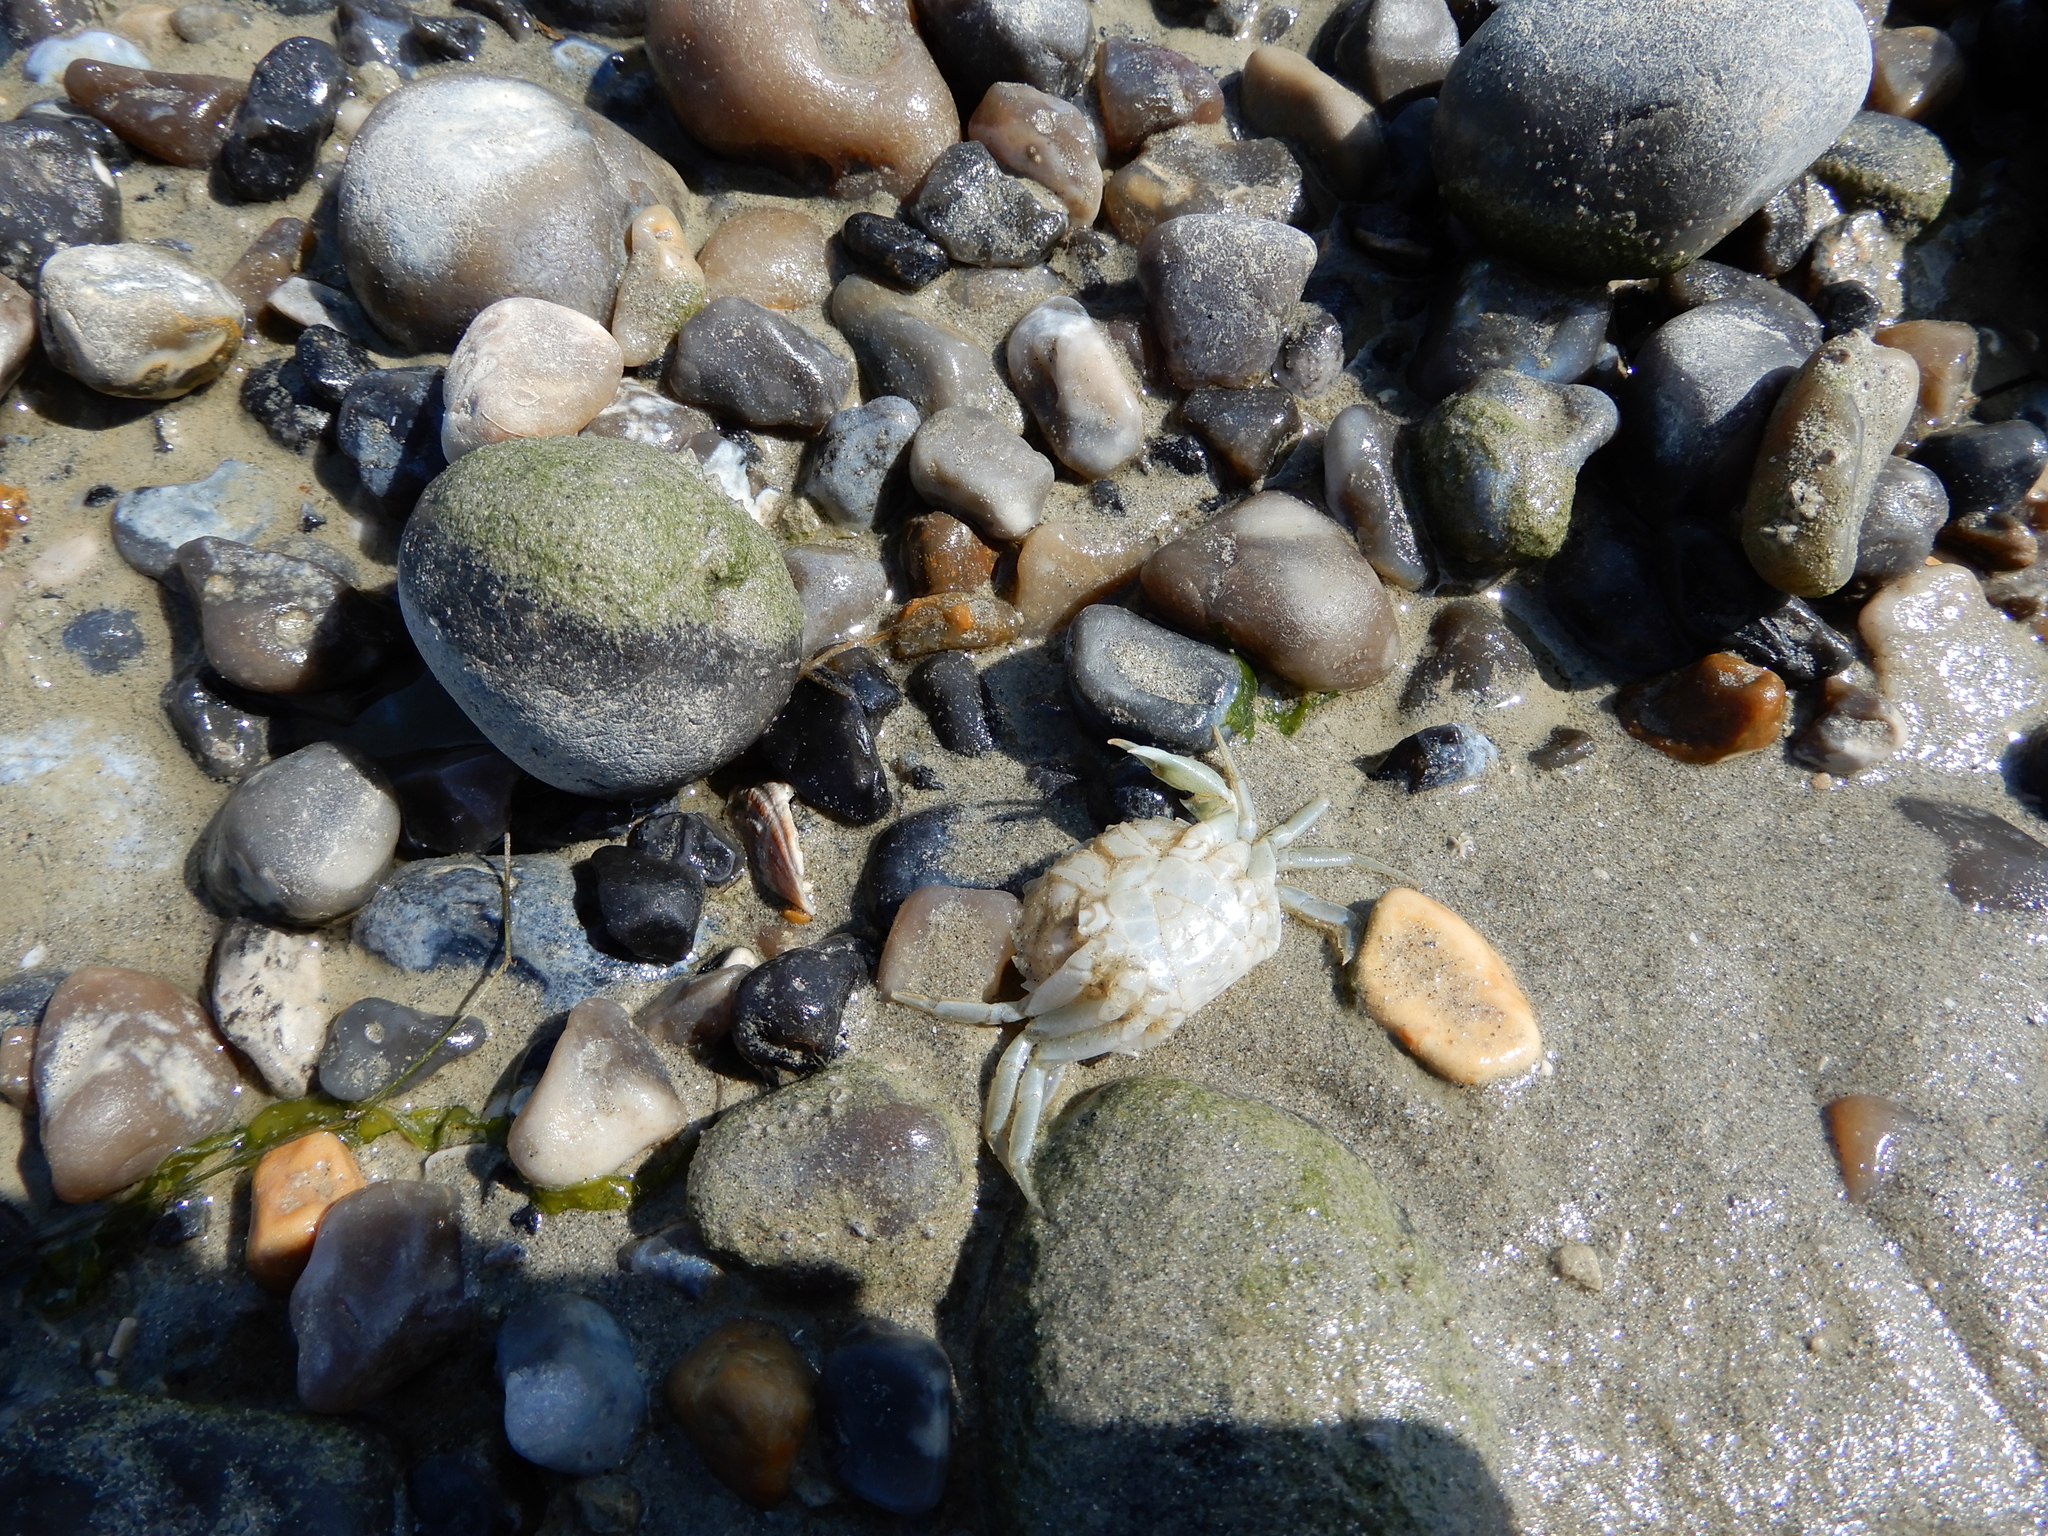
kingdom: Animalia
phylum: Arthropoda
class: Malacostraca
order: Decapoda
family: Carcinidae
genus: Carcinus
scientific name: Carcinus maenas
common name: European green crab
